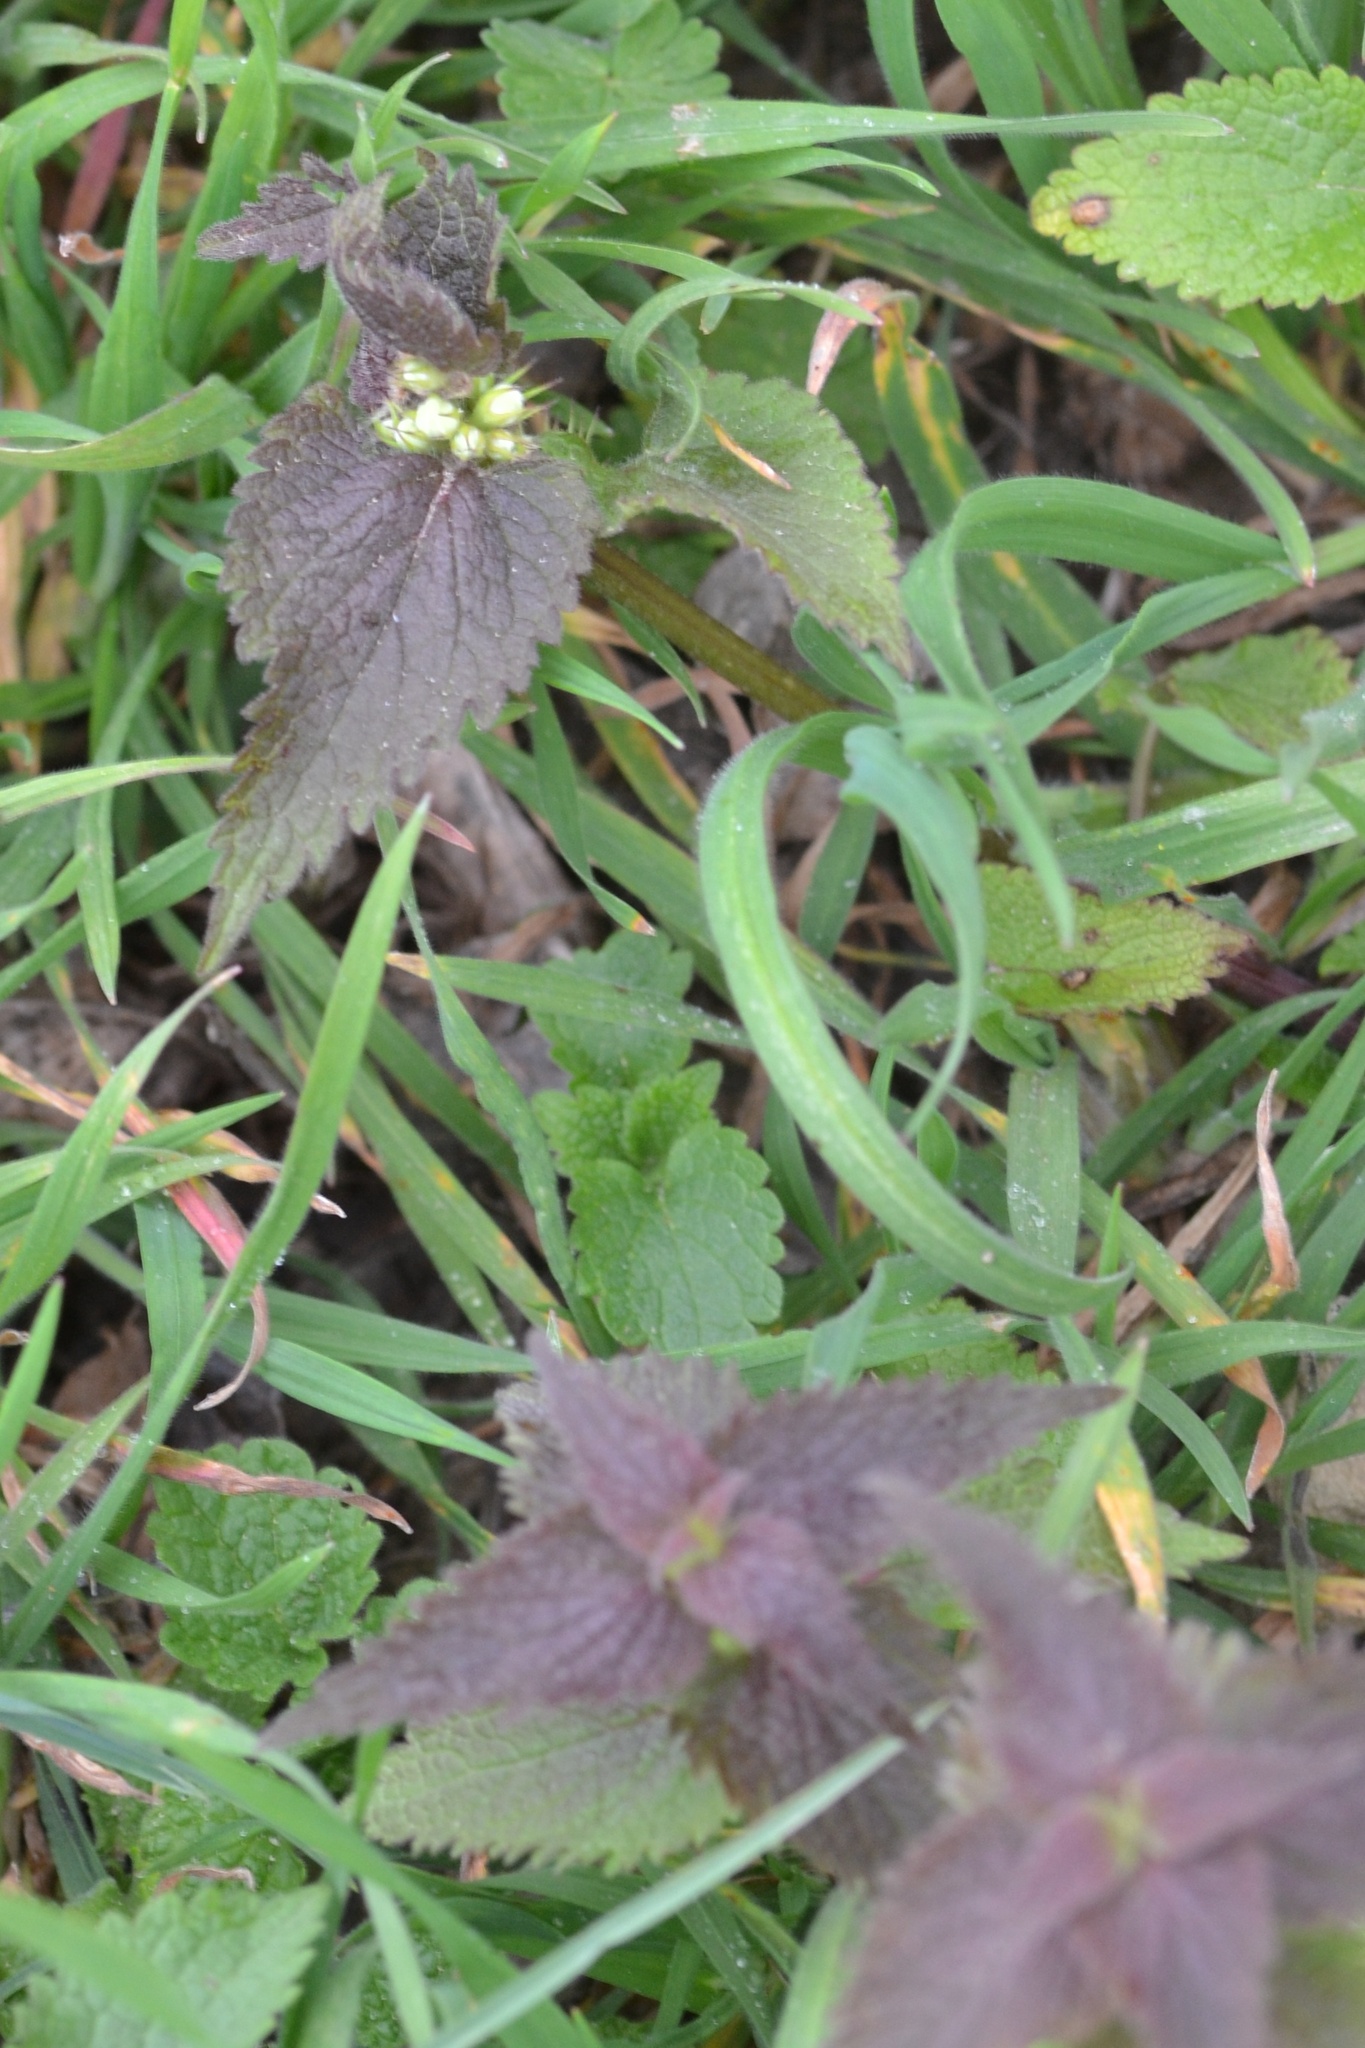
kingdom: Plantae
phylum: Tracheophyta
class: Magnoliopsida
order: Lamiales
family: Lamiaceae
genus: Lamium
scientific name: Lamium album
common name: White dead-nettle
